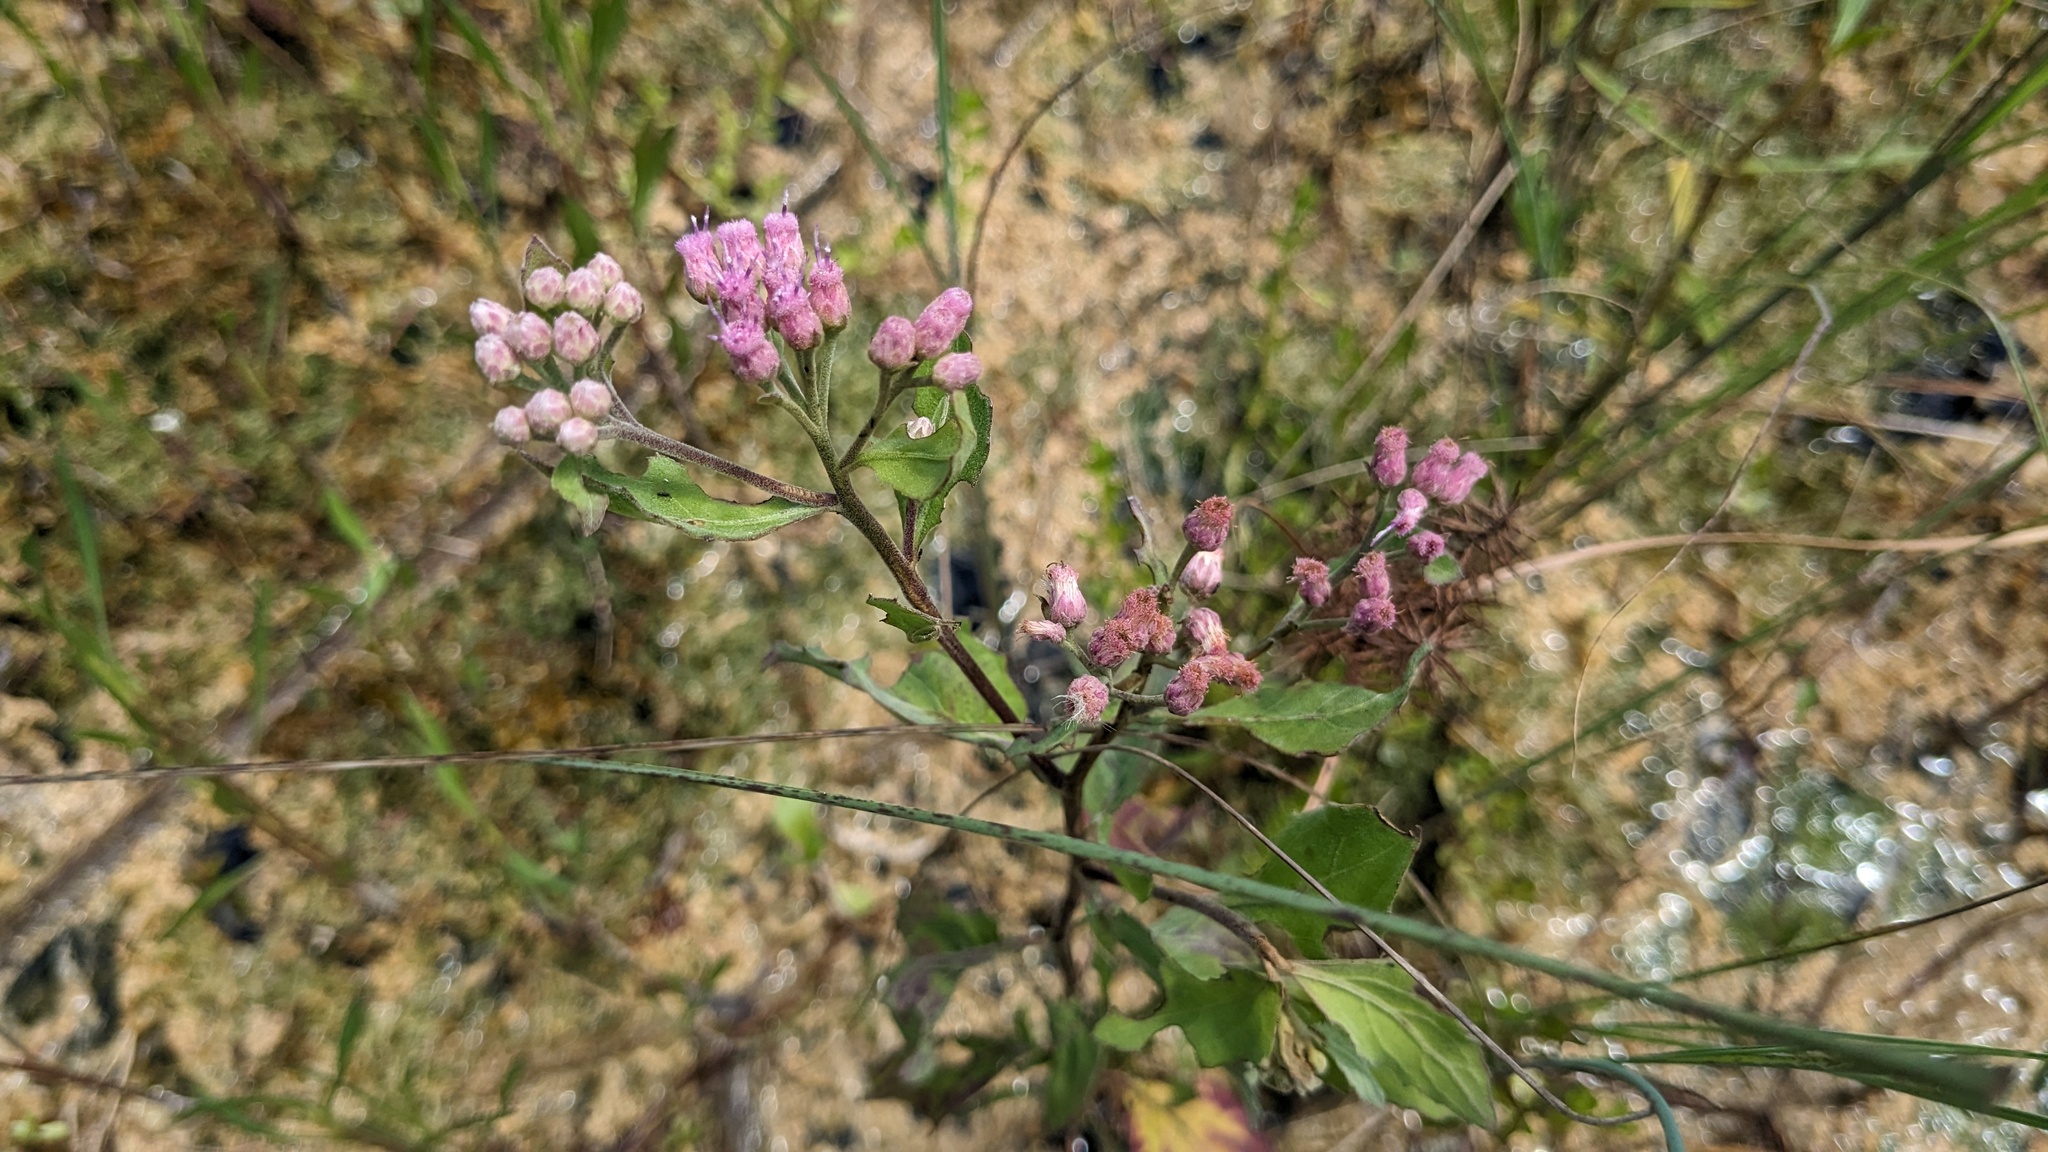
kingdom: Plantae
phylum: Tracheophyta
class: Magnoliopsida
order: Asterales
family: Asteraceae
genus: Pluchea
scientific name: Pluchea odorata
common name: Saltmarsh fleabane
